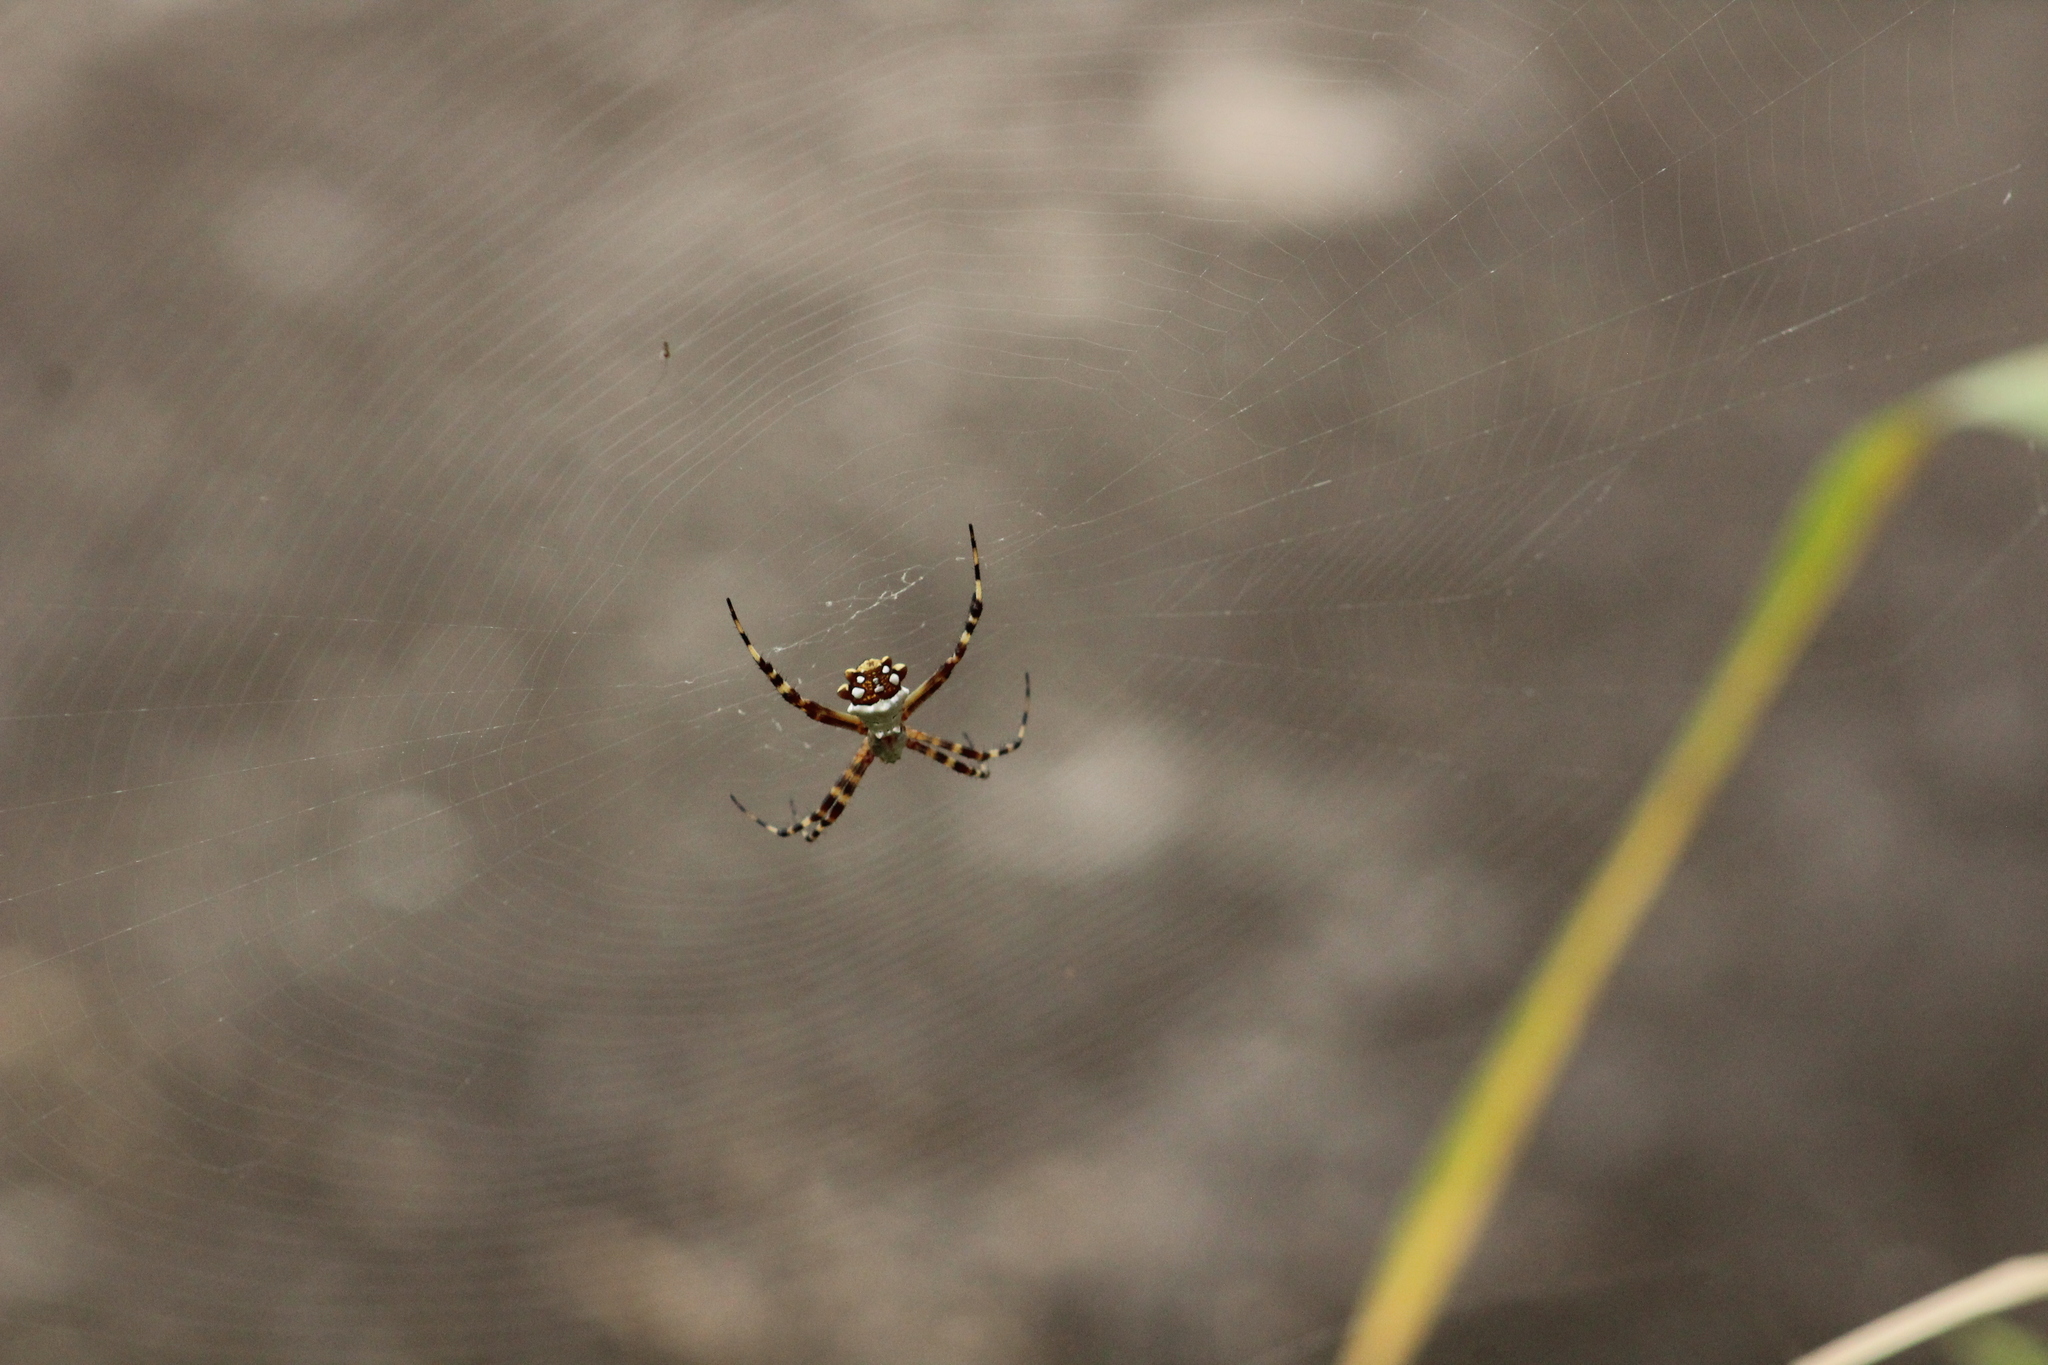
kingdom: Animalia
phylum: Arthropoda
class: Arachnida
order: Araneae
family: Araneidae
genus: Argiope
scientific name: Argiope argentata
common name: Orb weavers
